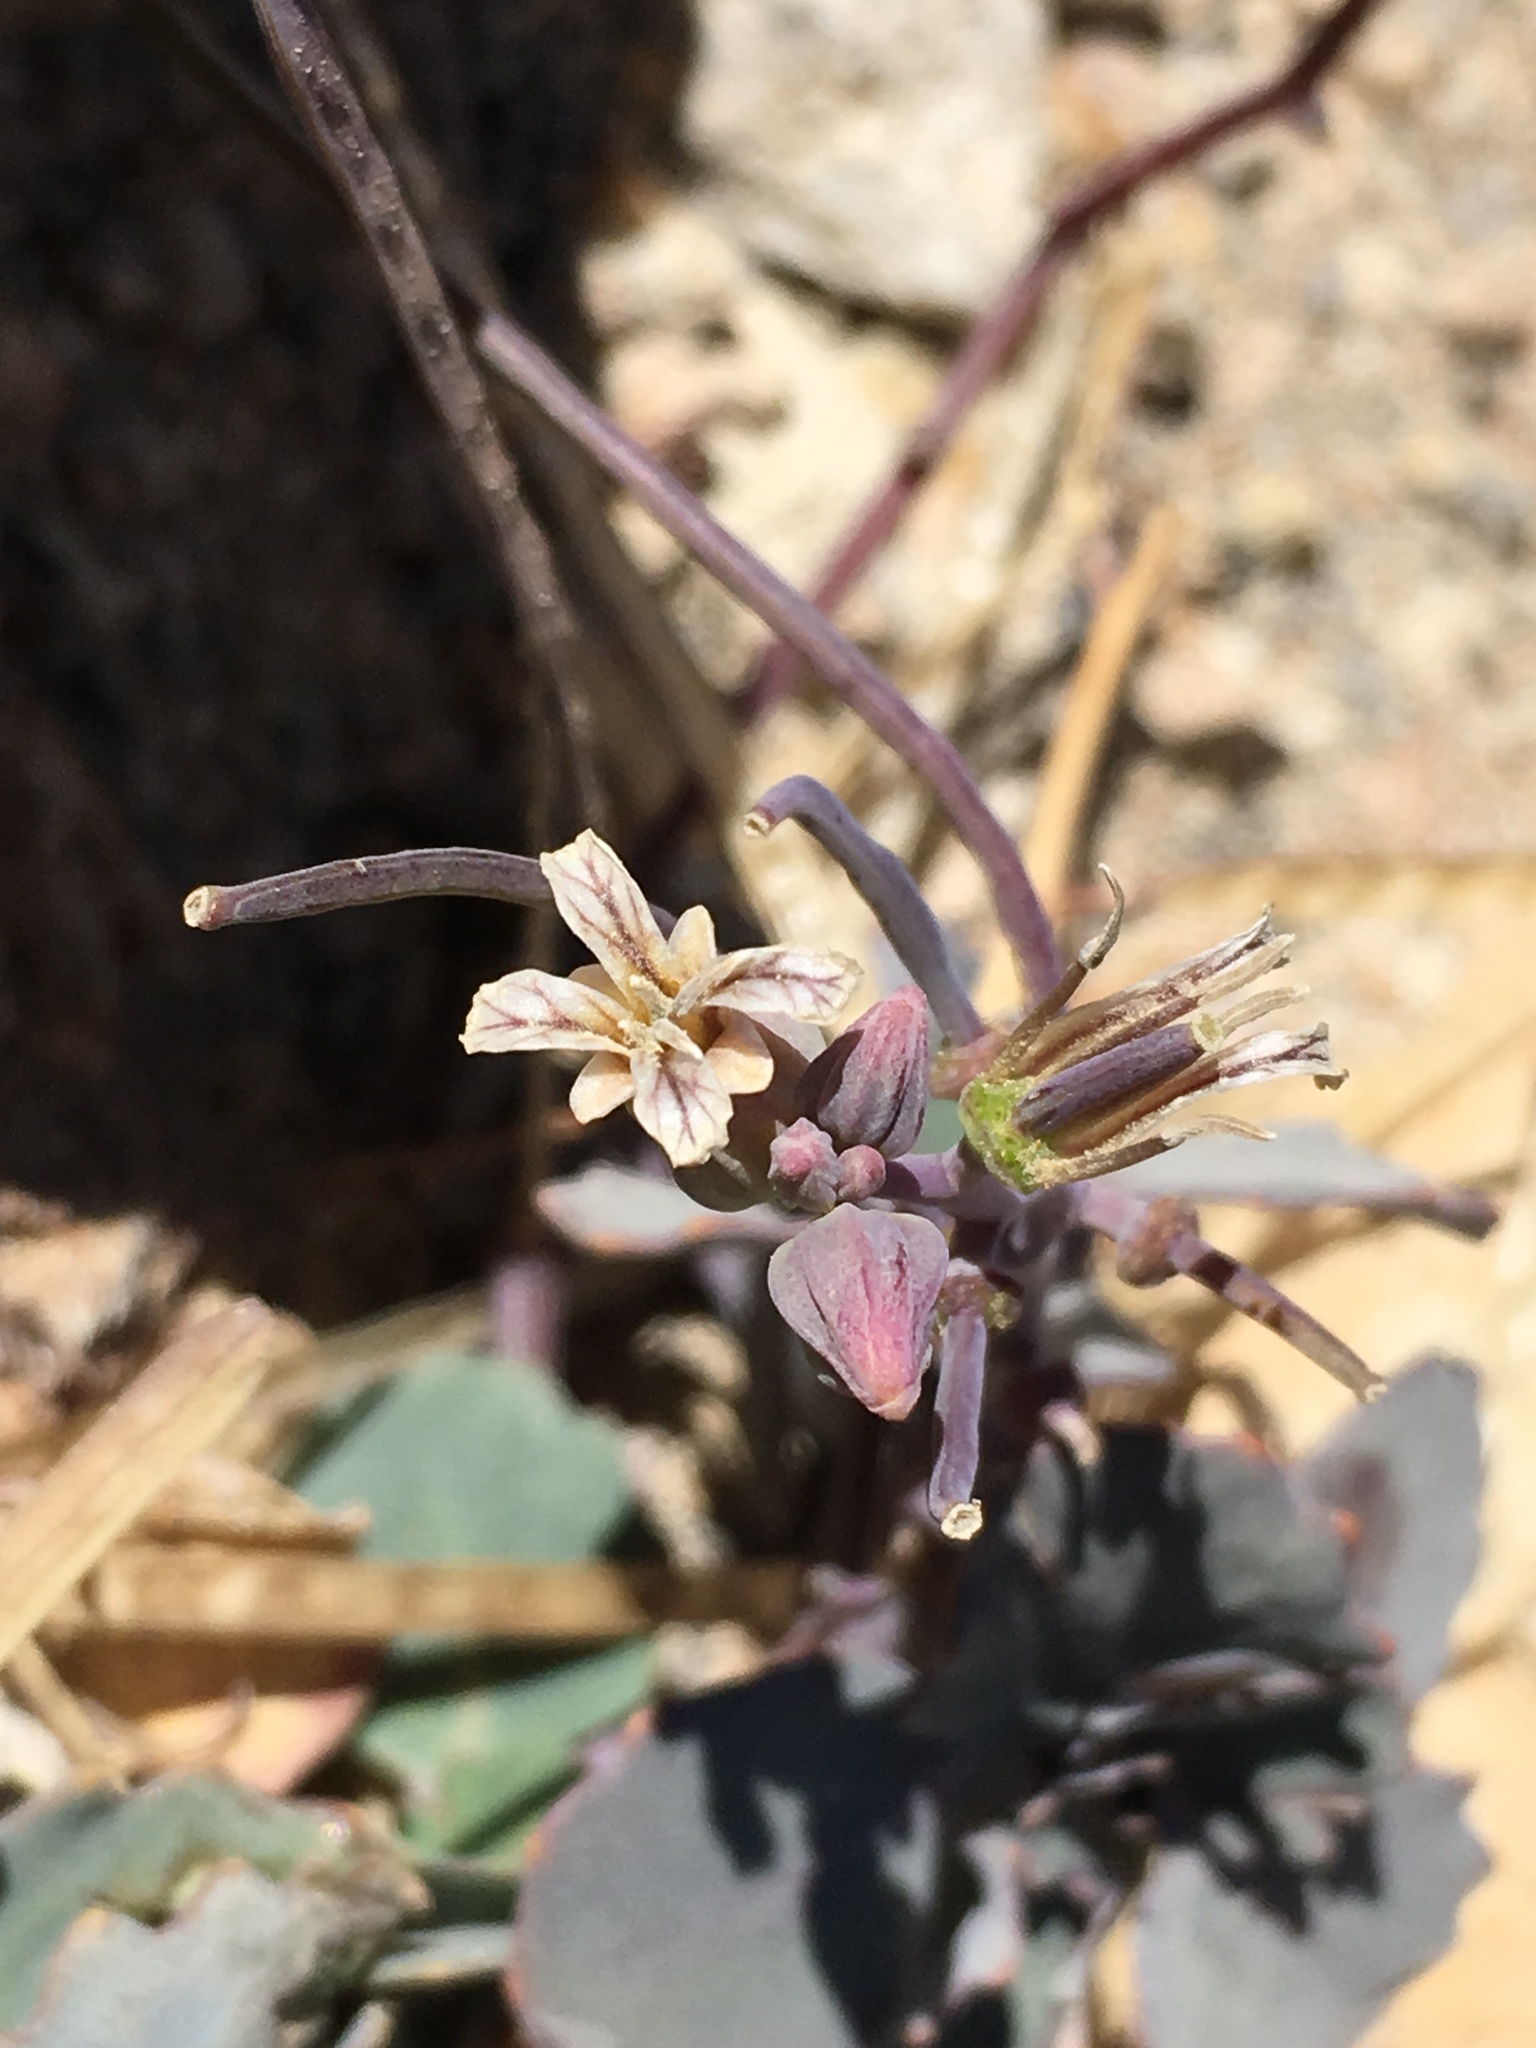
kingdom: Plantae
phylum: Tracheophyta
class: Magnoliopsida
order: Brassicales
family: Brassicaceae
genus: Streptanthus
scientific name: Streptanthus tortuosus
